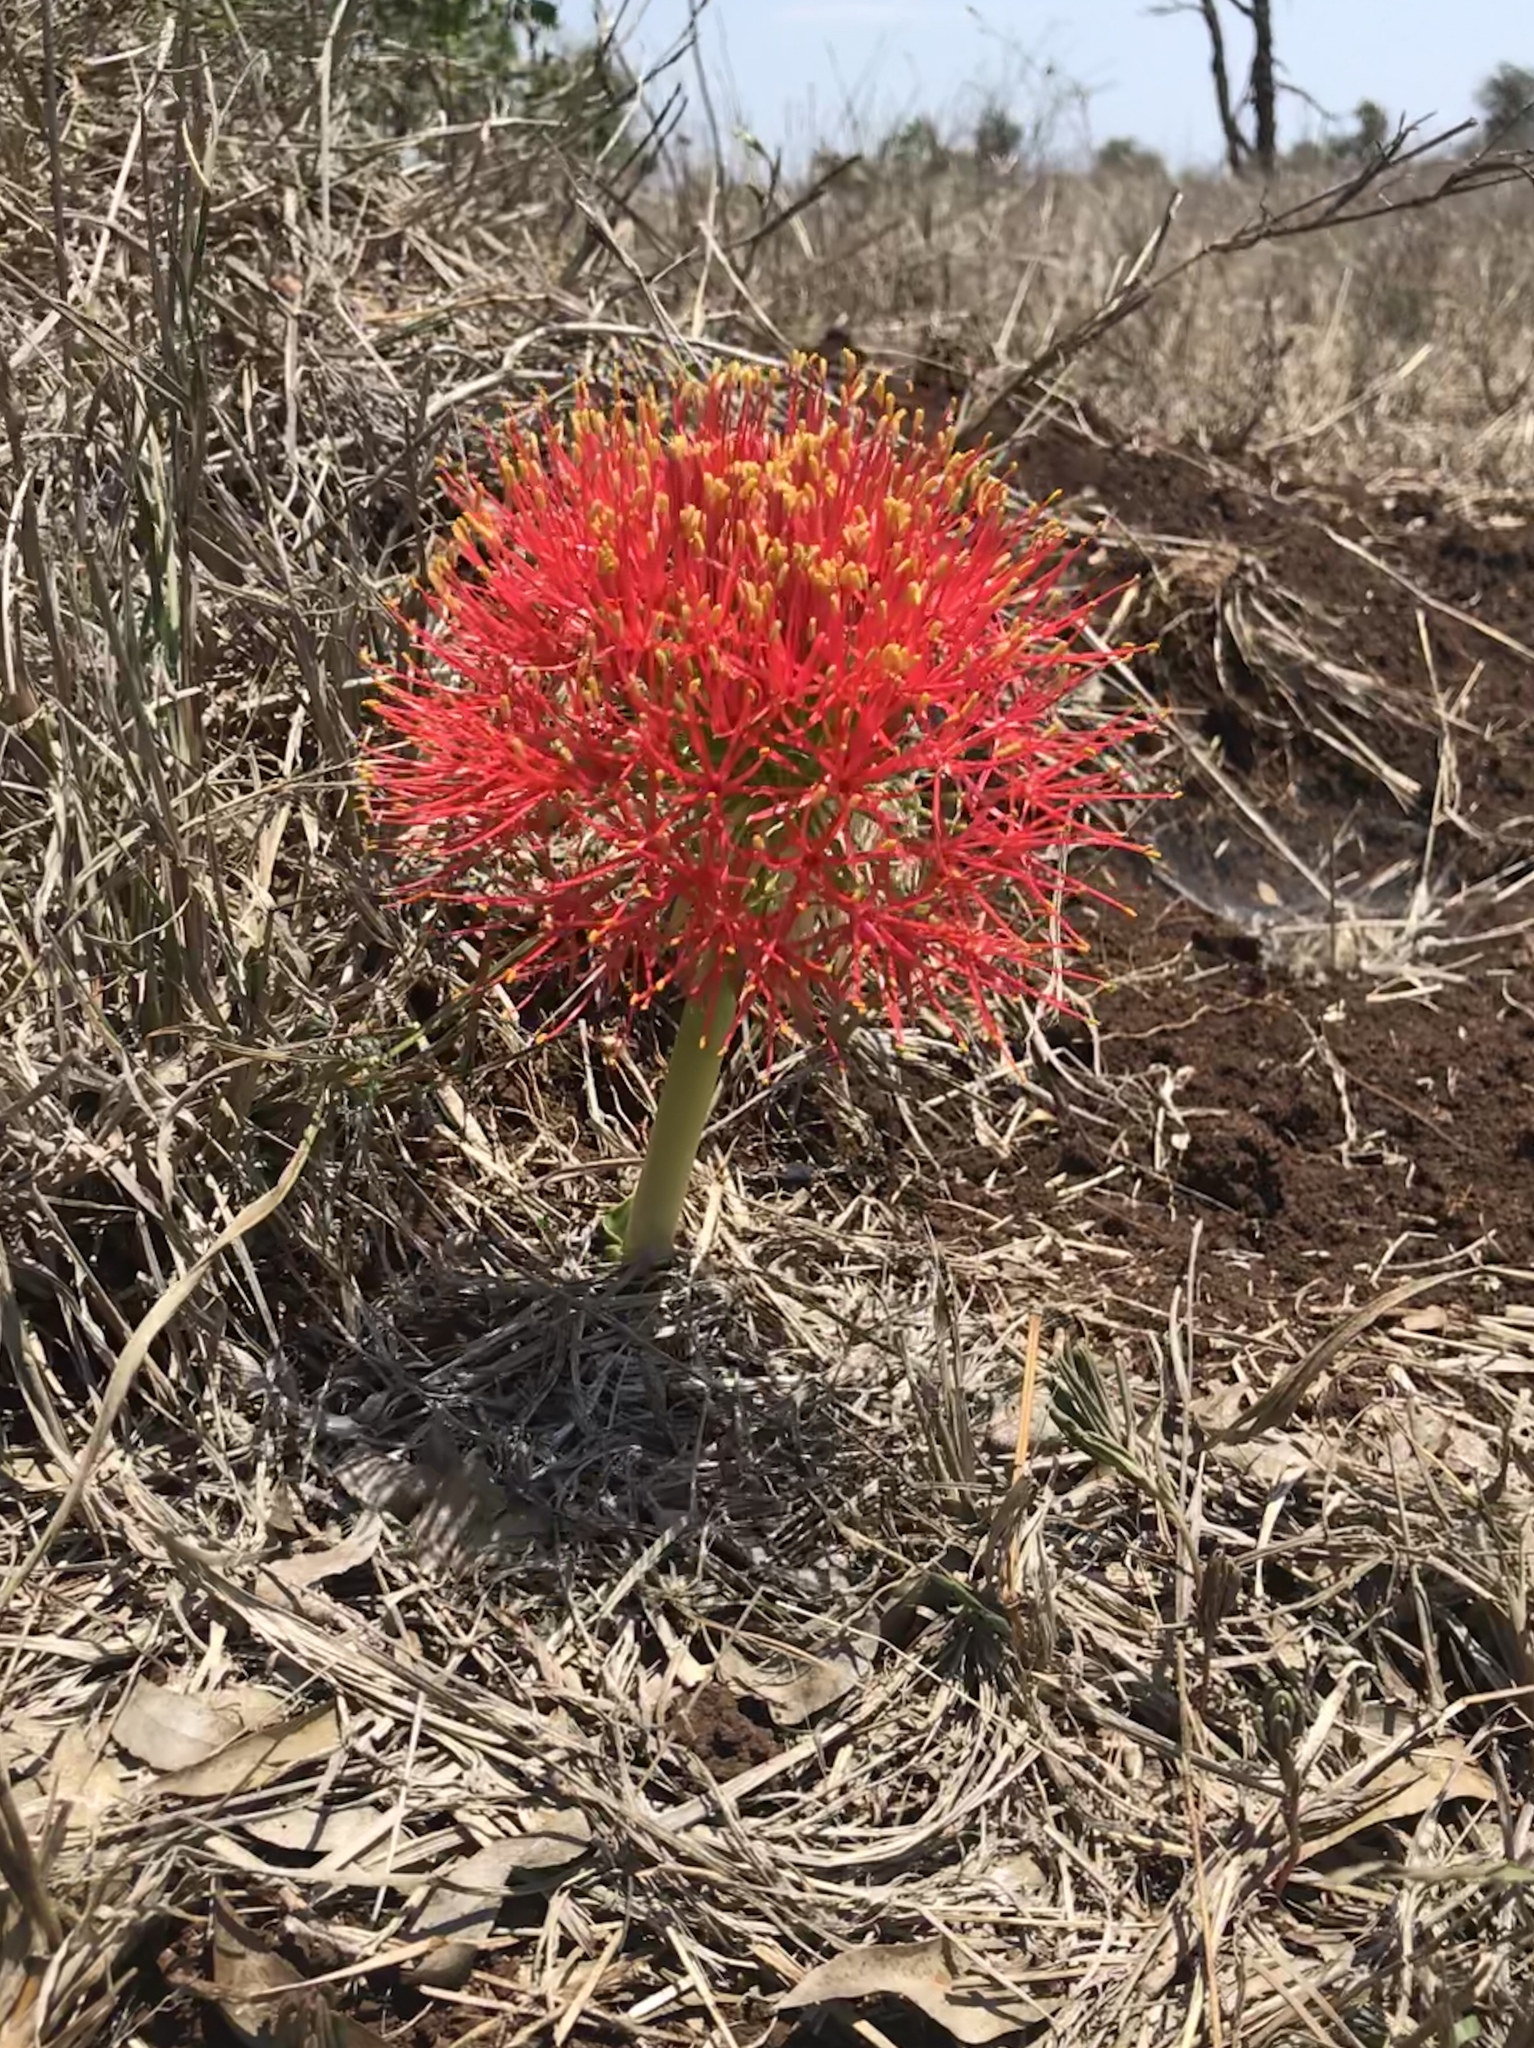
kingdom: Plantae
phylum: Tracheophyta
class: Liliopsida
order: Asparagales
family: Amaryllidaceae
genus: Scadoxus
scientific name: Scadoxus multiflorus
